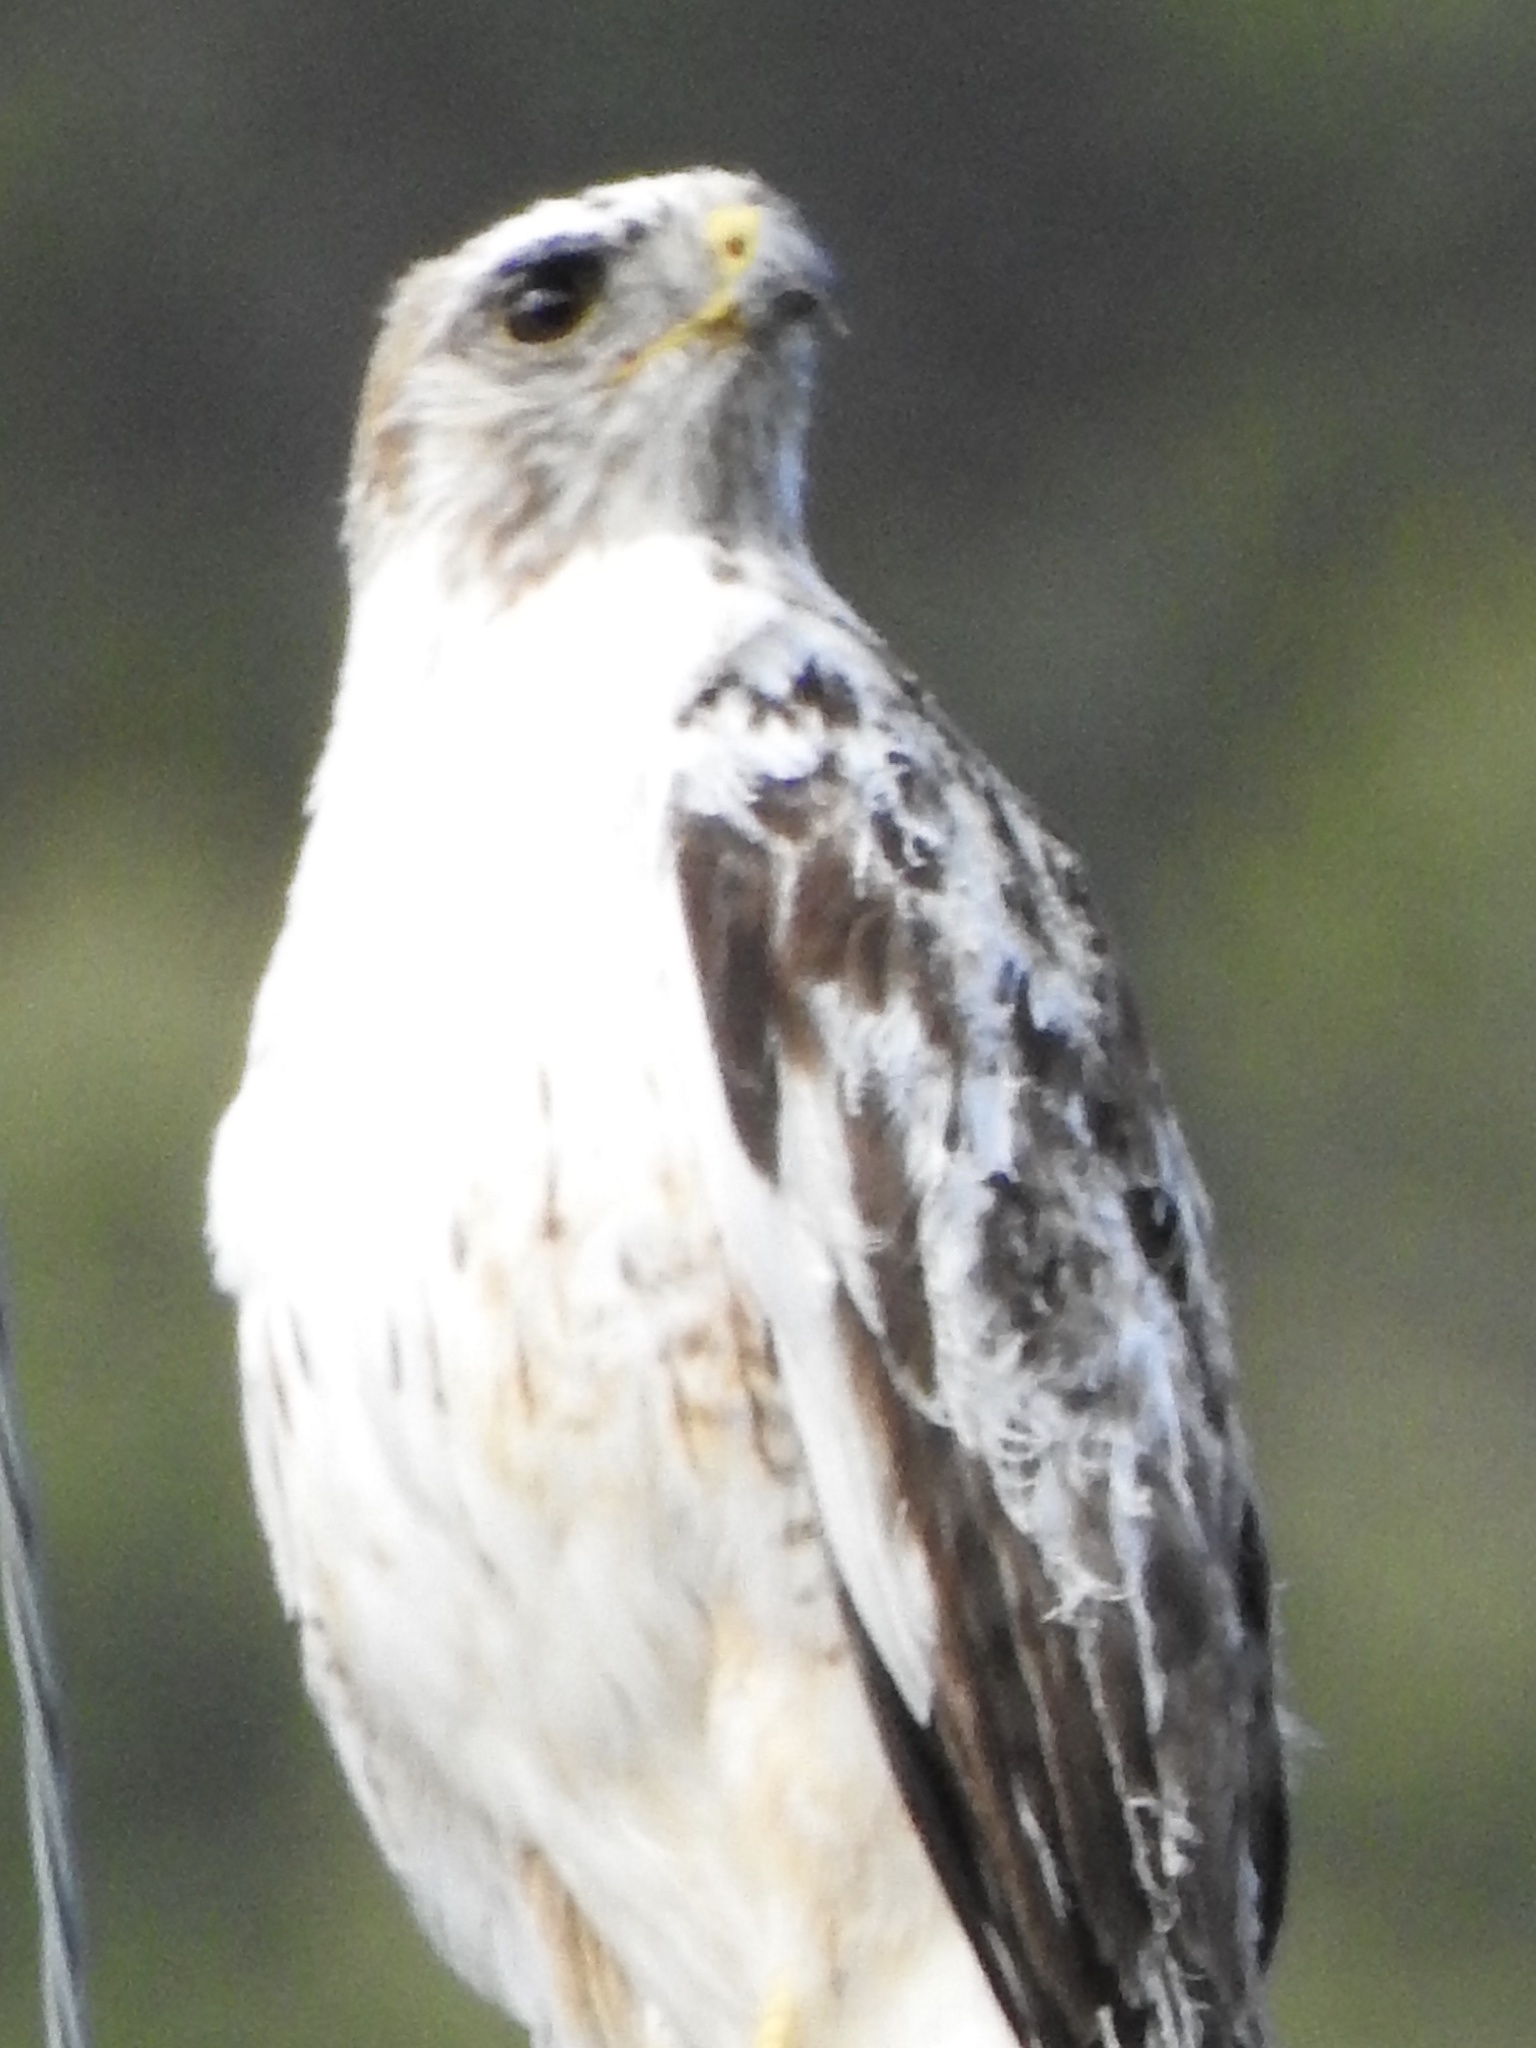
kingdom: Animalia
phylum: Chordata
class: Aves
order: Accipitriformes
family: Accipitridae
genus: Buteo
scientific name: Buteo jamaicensis
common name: Red-tailed hawk
